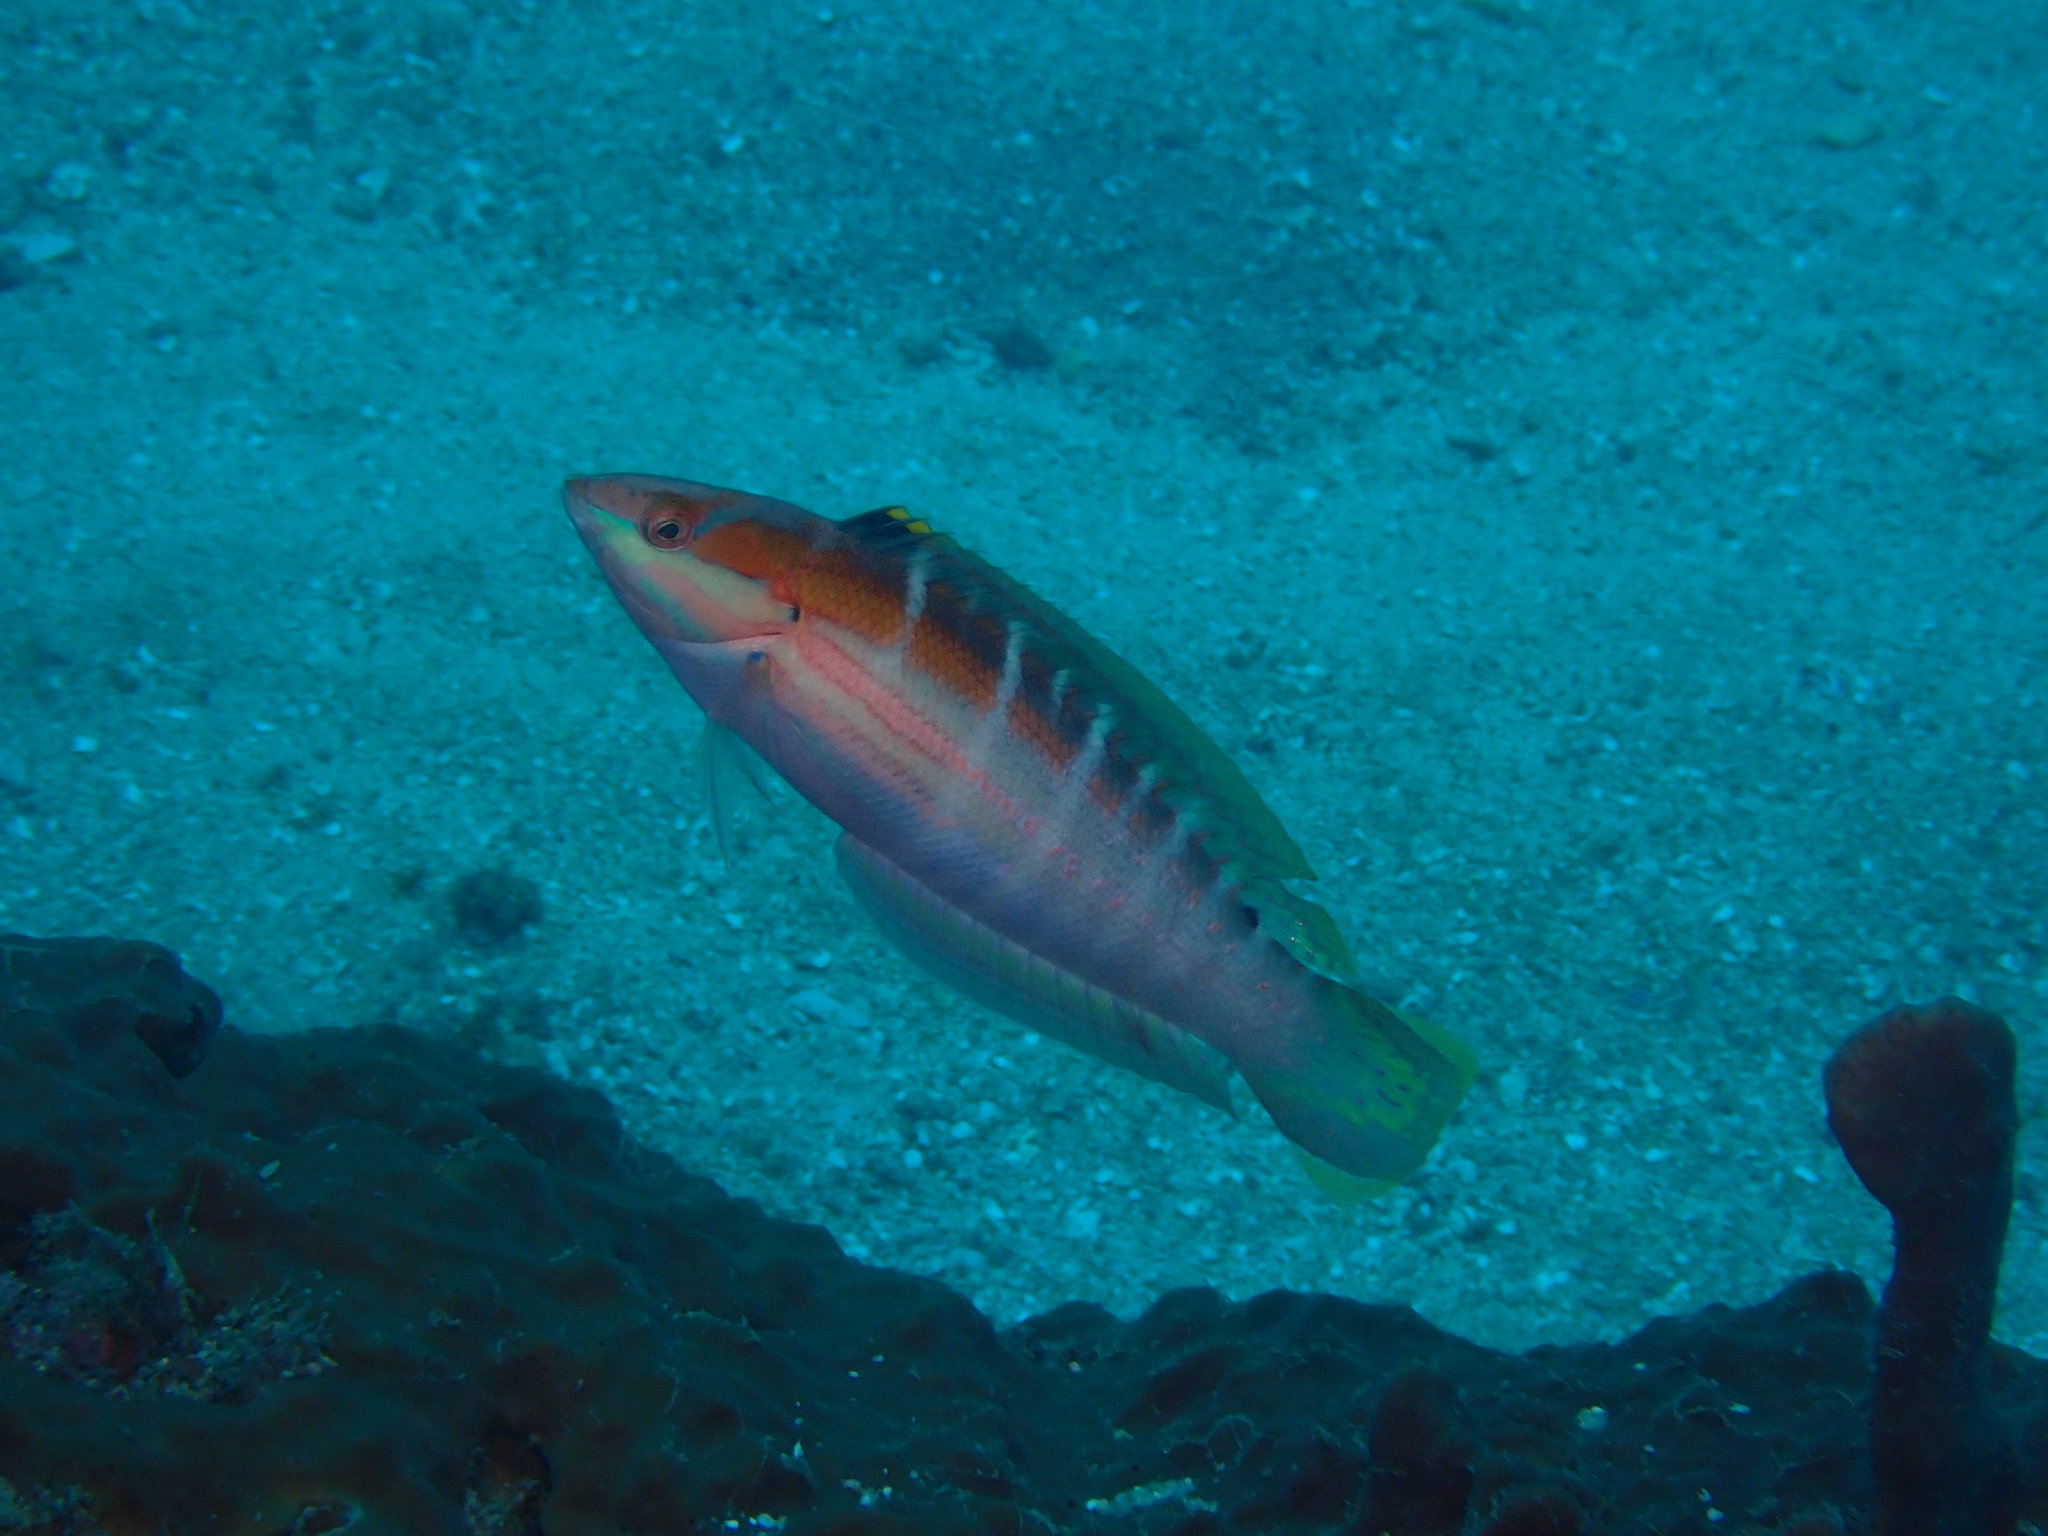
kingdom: Animalia
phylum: Chordata
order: Perciformes
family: Labridae
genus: Coris
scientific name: Coris dorsomacula
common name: Pale-barred coris
